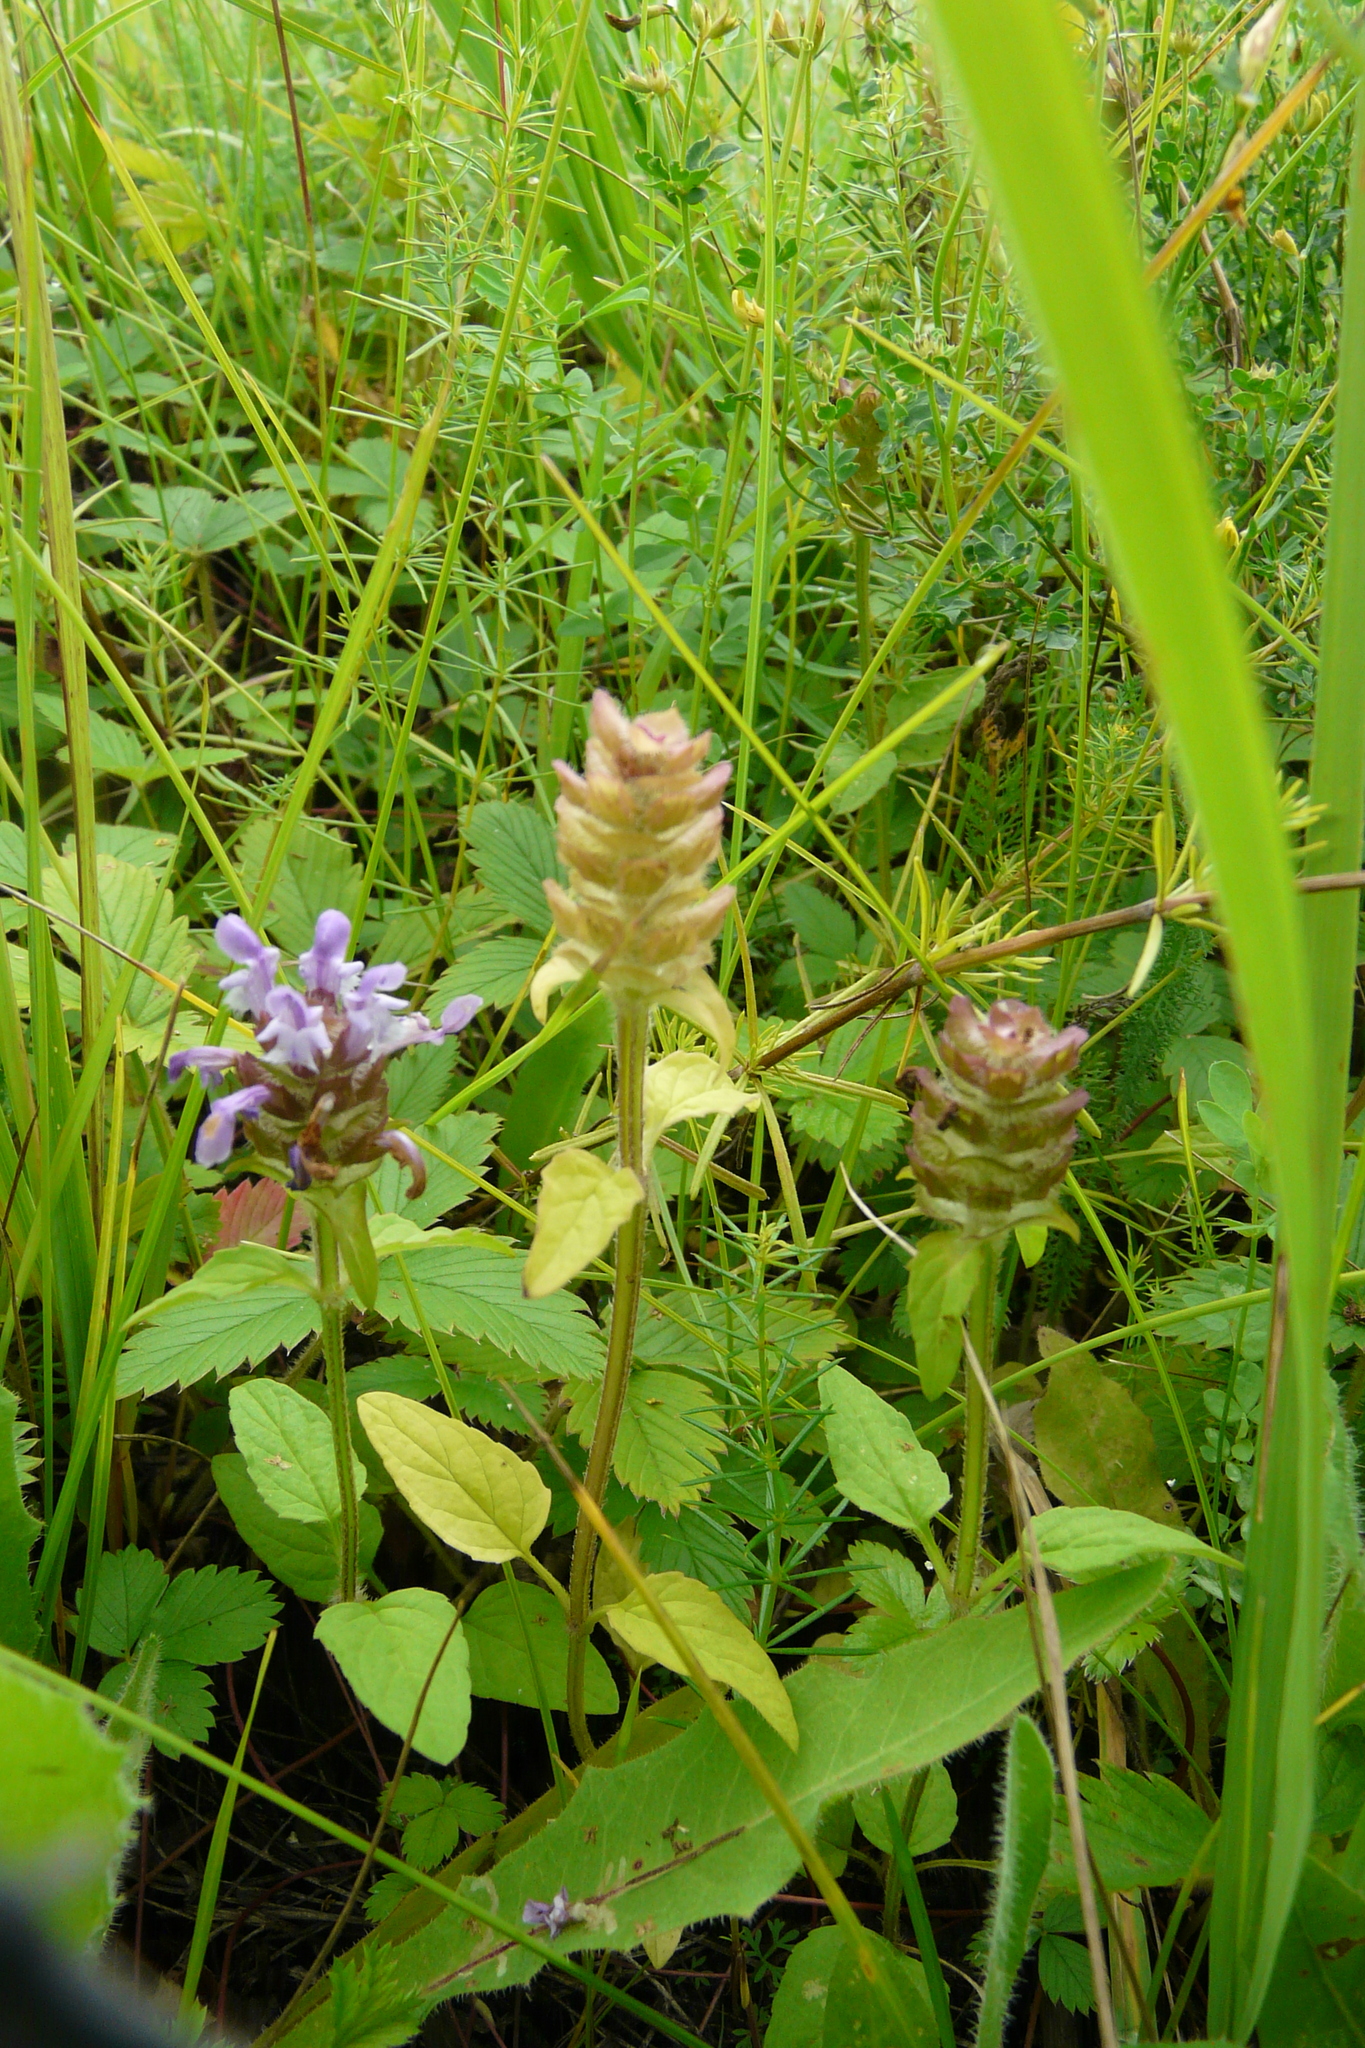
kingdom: Plantae
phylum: Tracheophyta
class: Magnoliopsida
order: Lamiales
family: Lamiaceae
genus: Prunella
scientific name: Prunella vulgaris
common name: Heal-all
